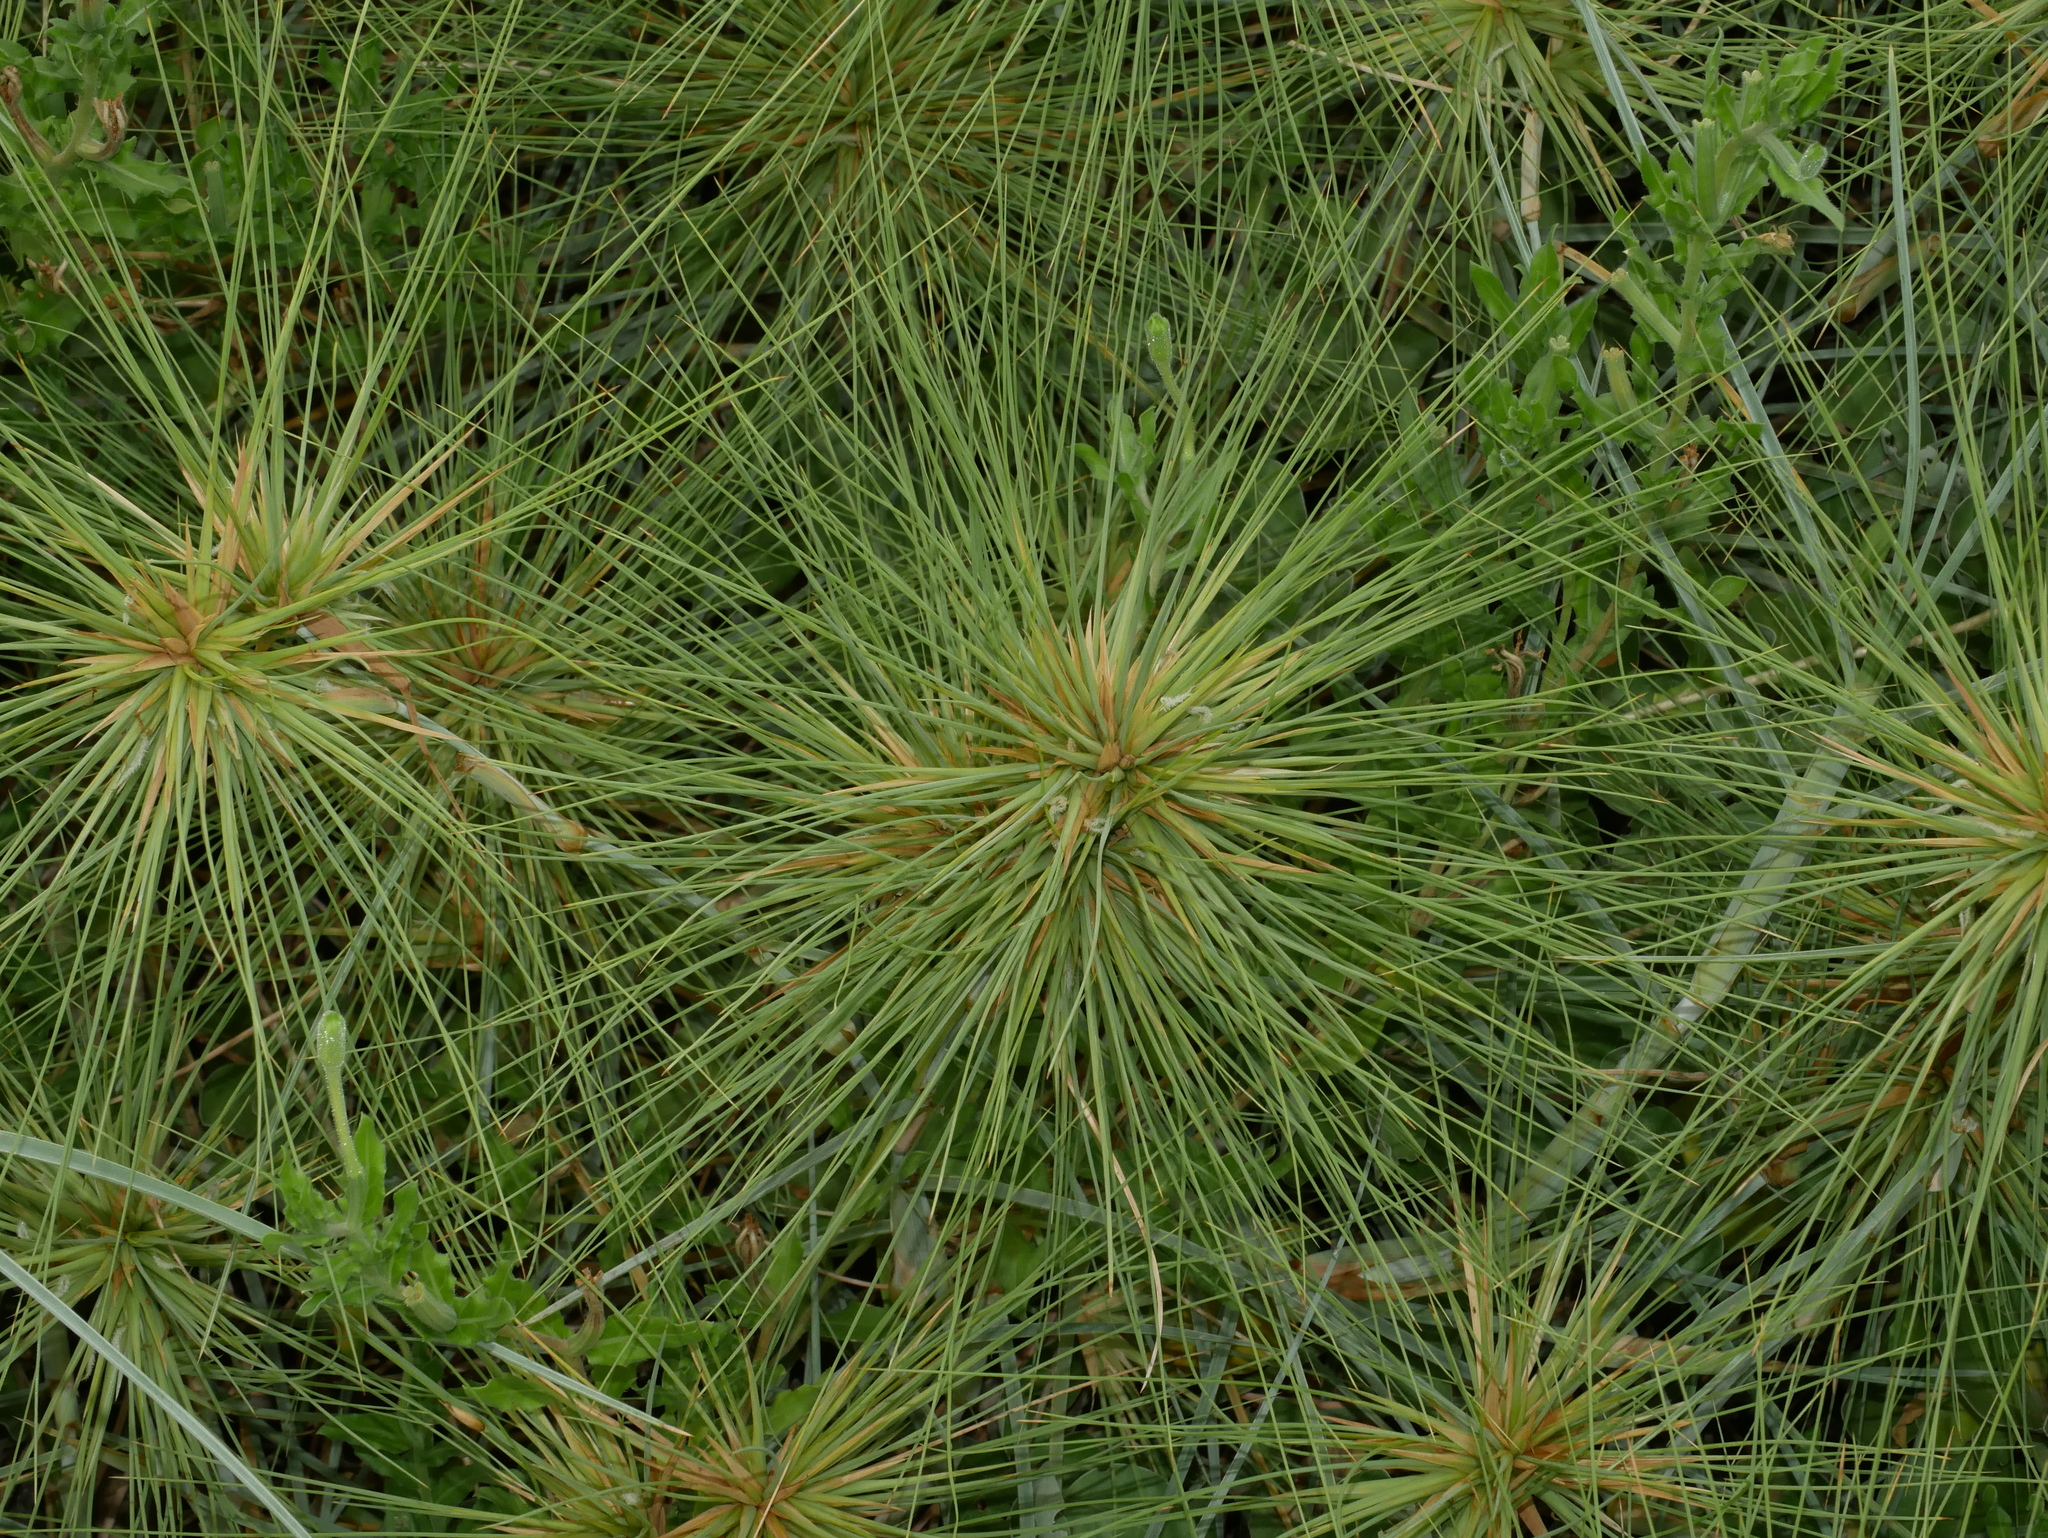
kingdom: Plantae
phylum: Tracheophyta
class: Liliopsida
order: Poales
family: Poaceae
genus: Spinifex
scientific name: Spinifex littoreus
